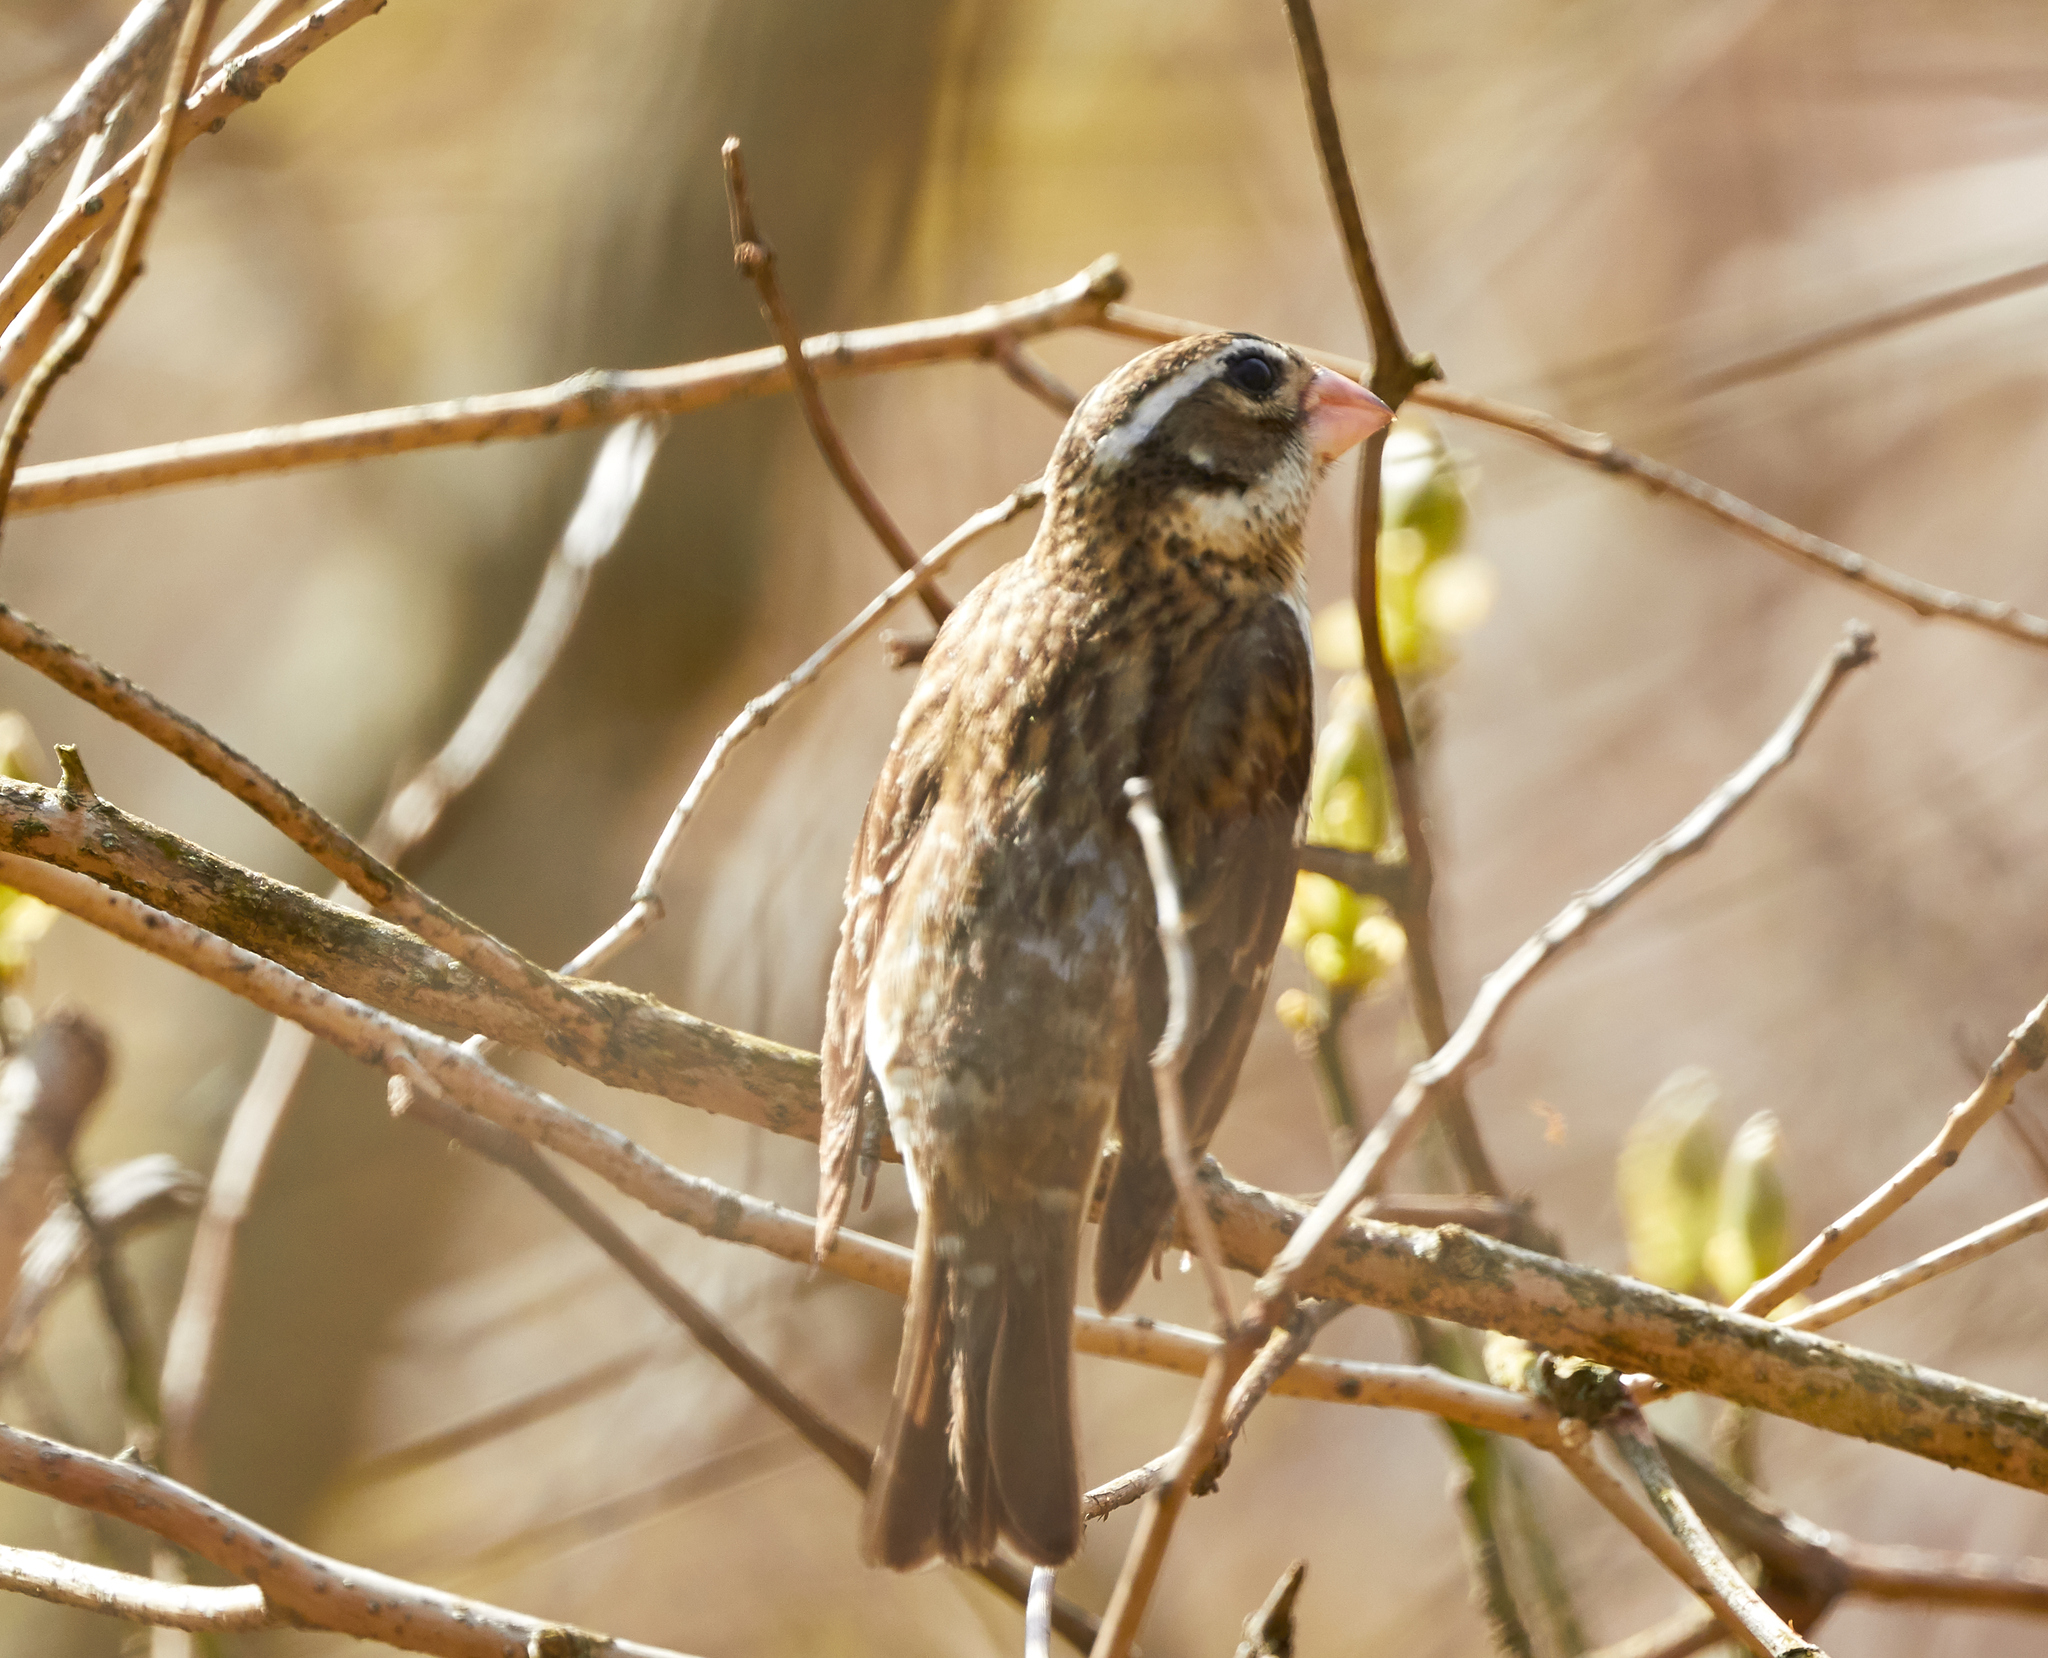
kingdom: Animalia
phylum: Chordata
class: Aves
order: Passeriformes
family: Cardinalidae
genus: Pheucticus
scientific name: Pheucticus ludovicianus
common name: Rose-breasted grosbeak
